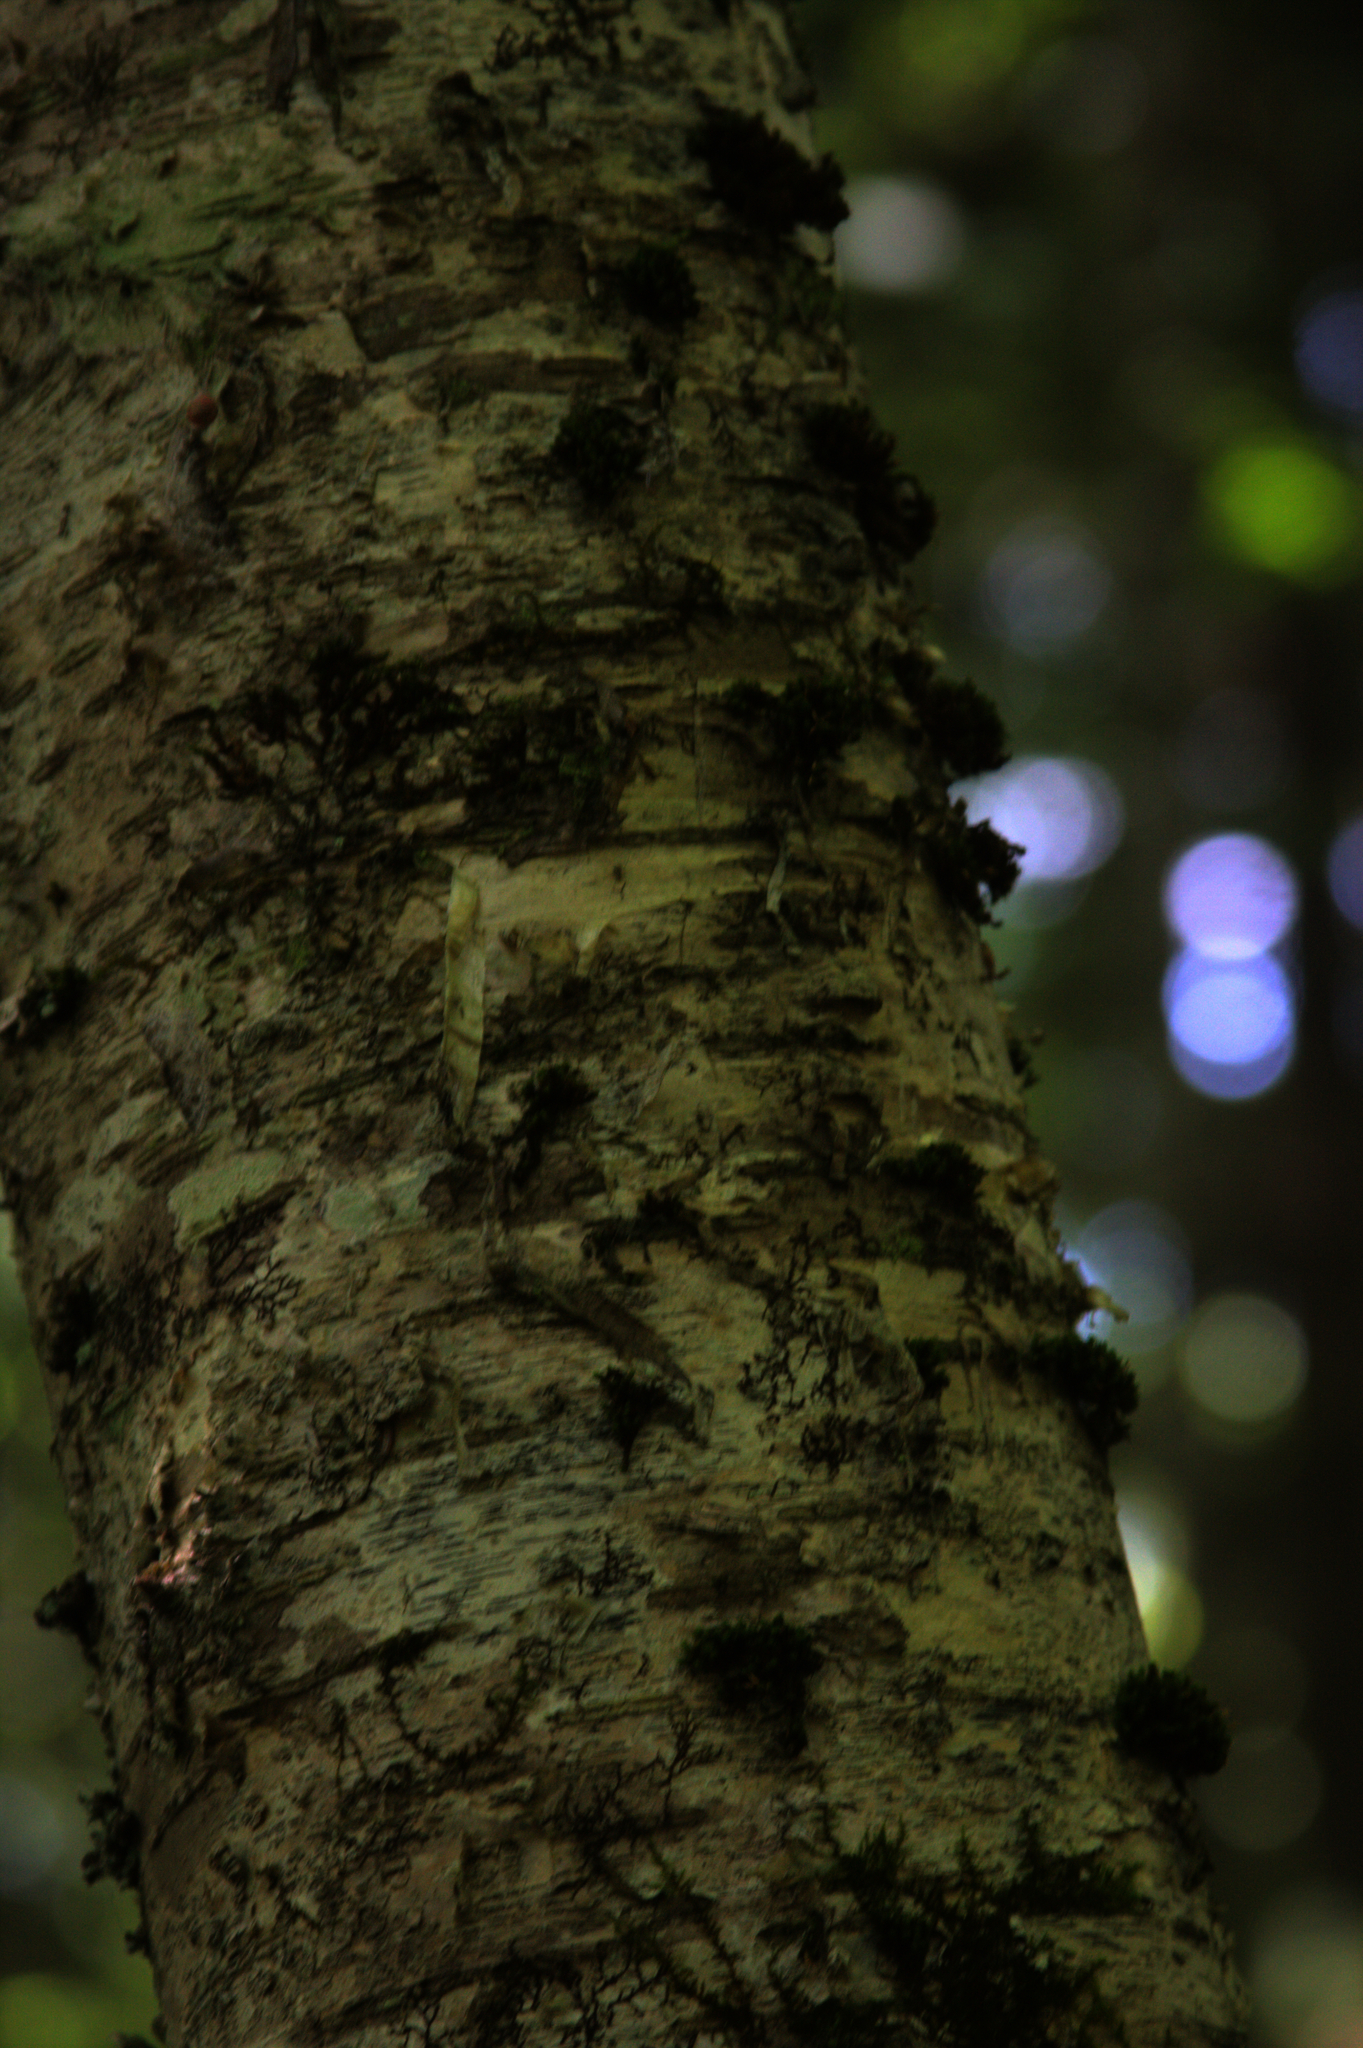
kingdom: Plantae
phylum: Bryophyta
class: Bryopsida
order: Orthotrichales
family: Orthotrichaceae
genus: Ulota
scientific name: Ulota crispa
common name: Crisped pincushion moss
